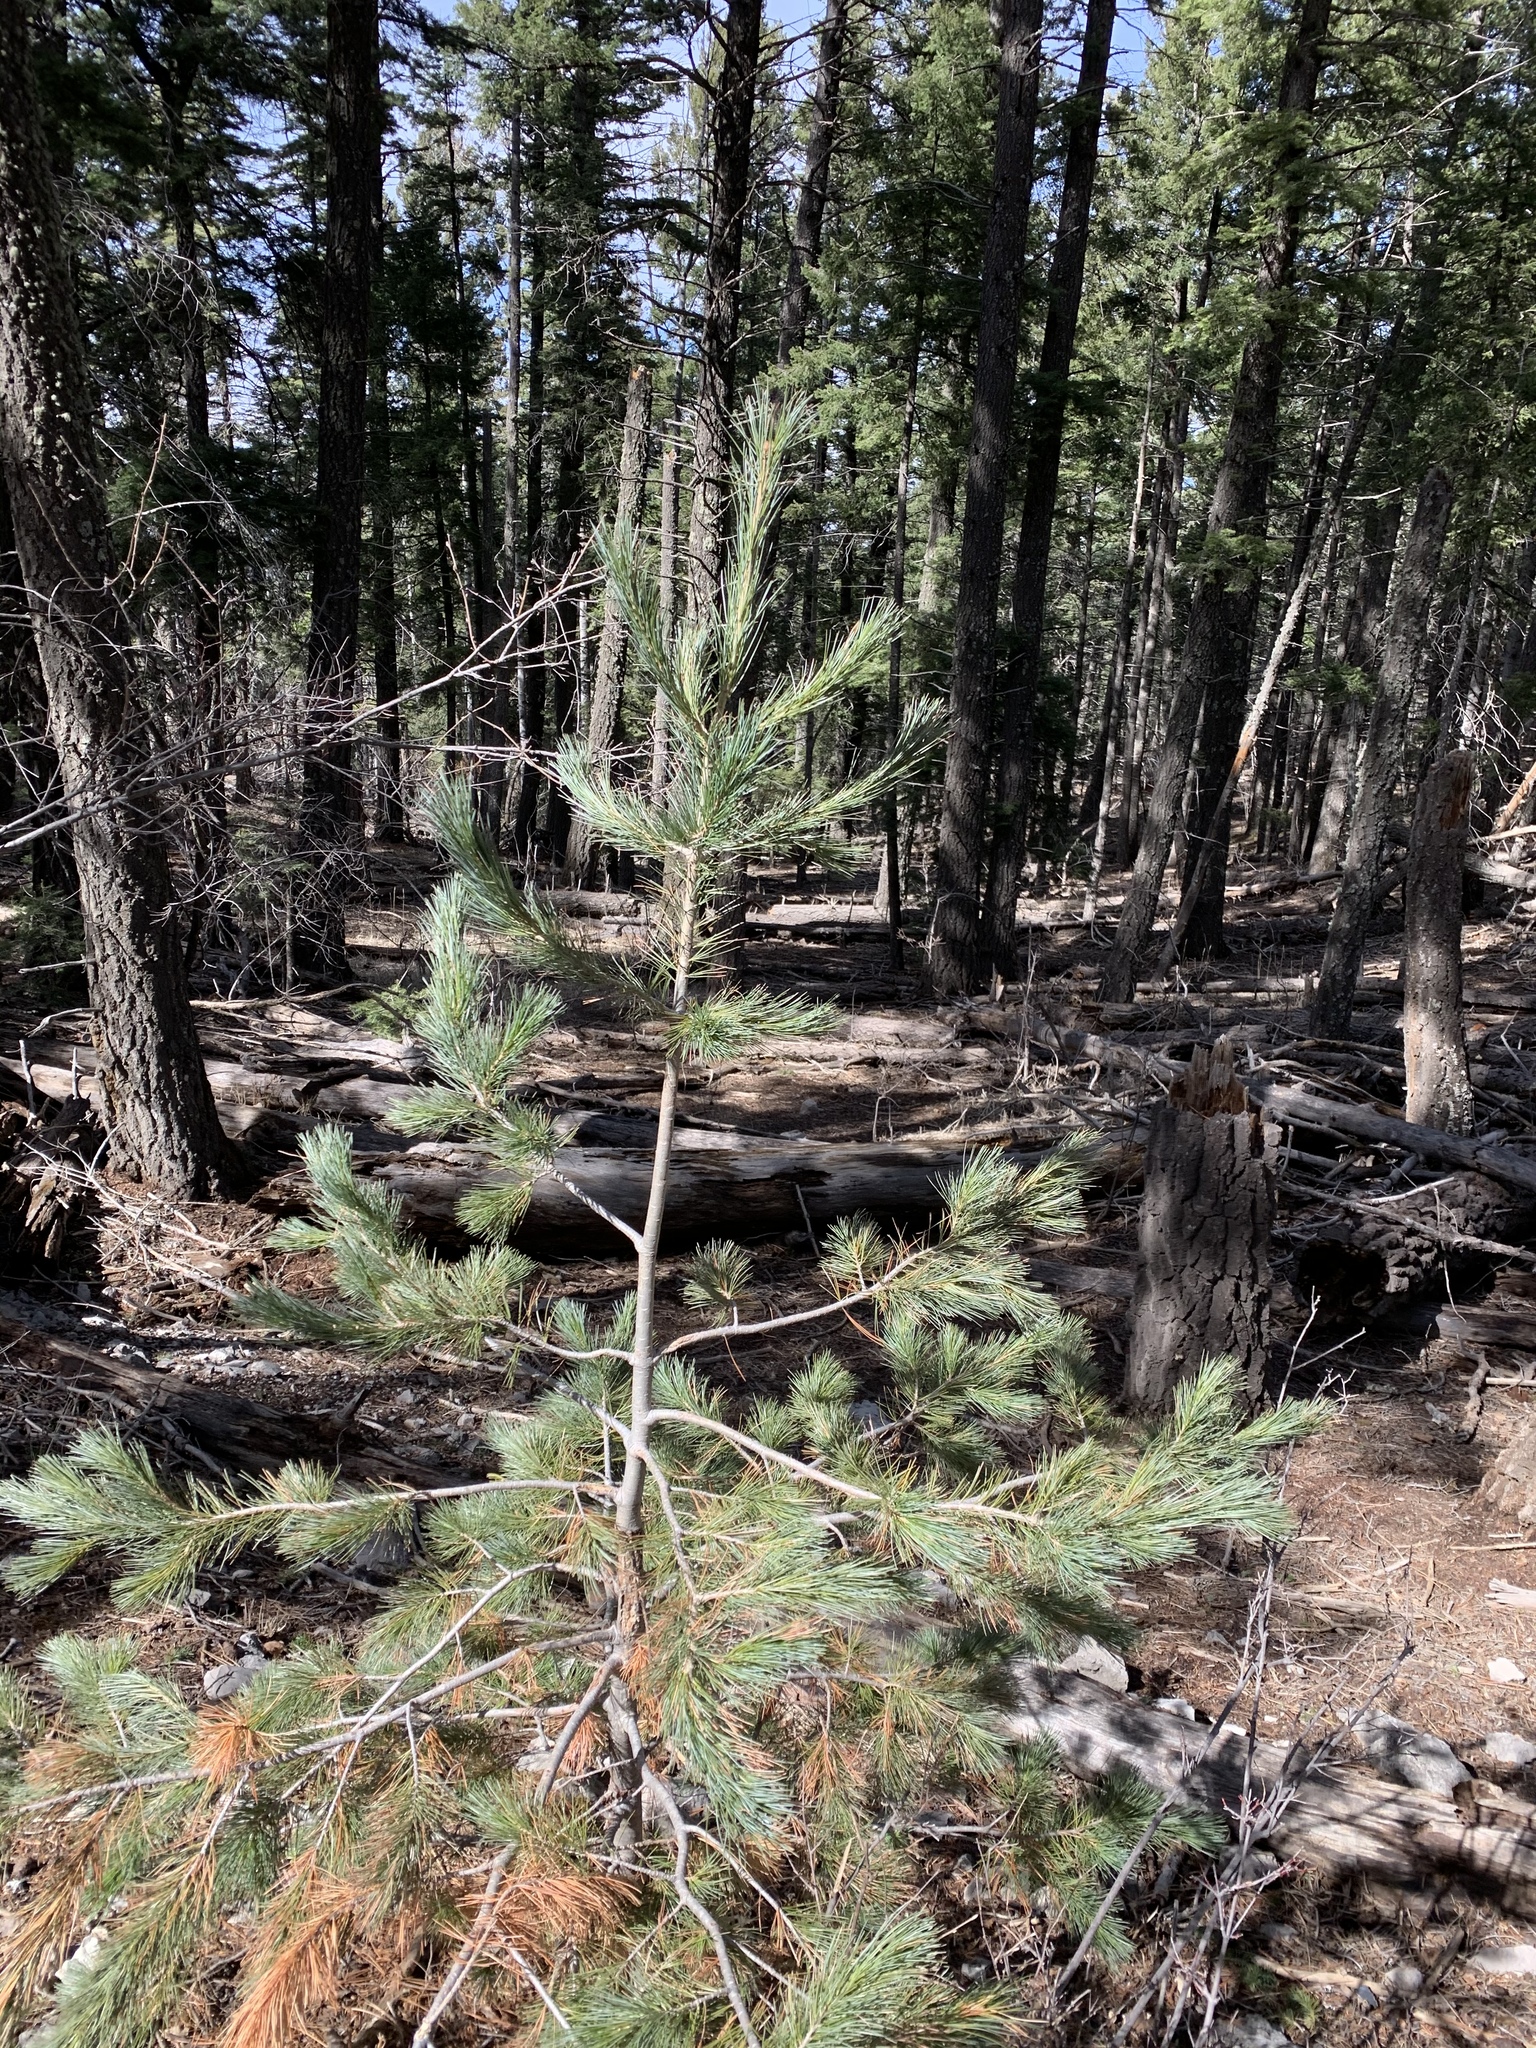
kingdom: Plantae
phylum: Tracheophyta
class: Pinopsida
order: Pinales
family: Pinaceae
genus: Pinus
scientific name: Pinus strobiformis
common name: Southwestern white pine
